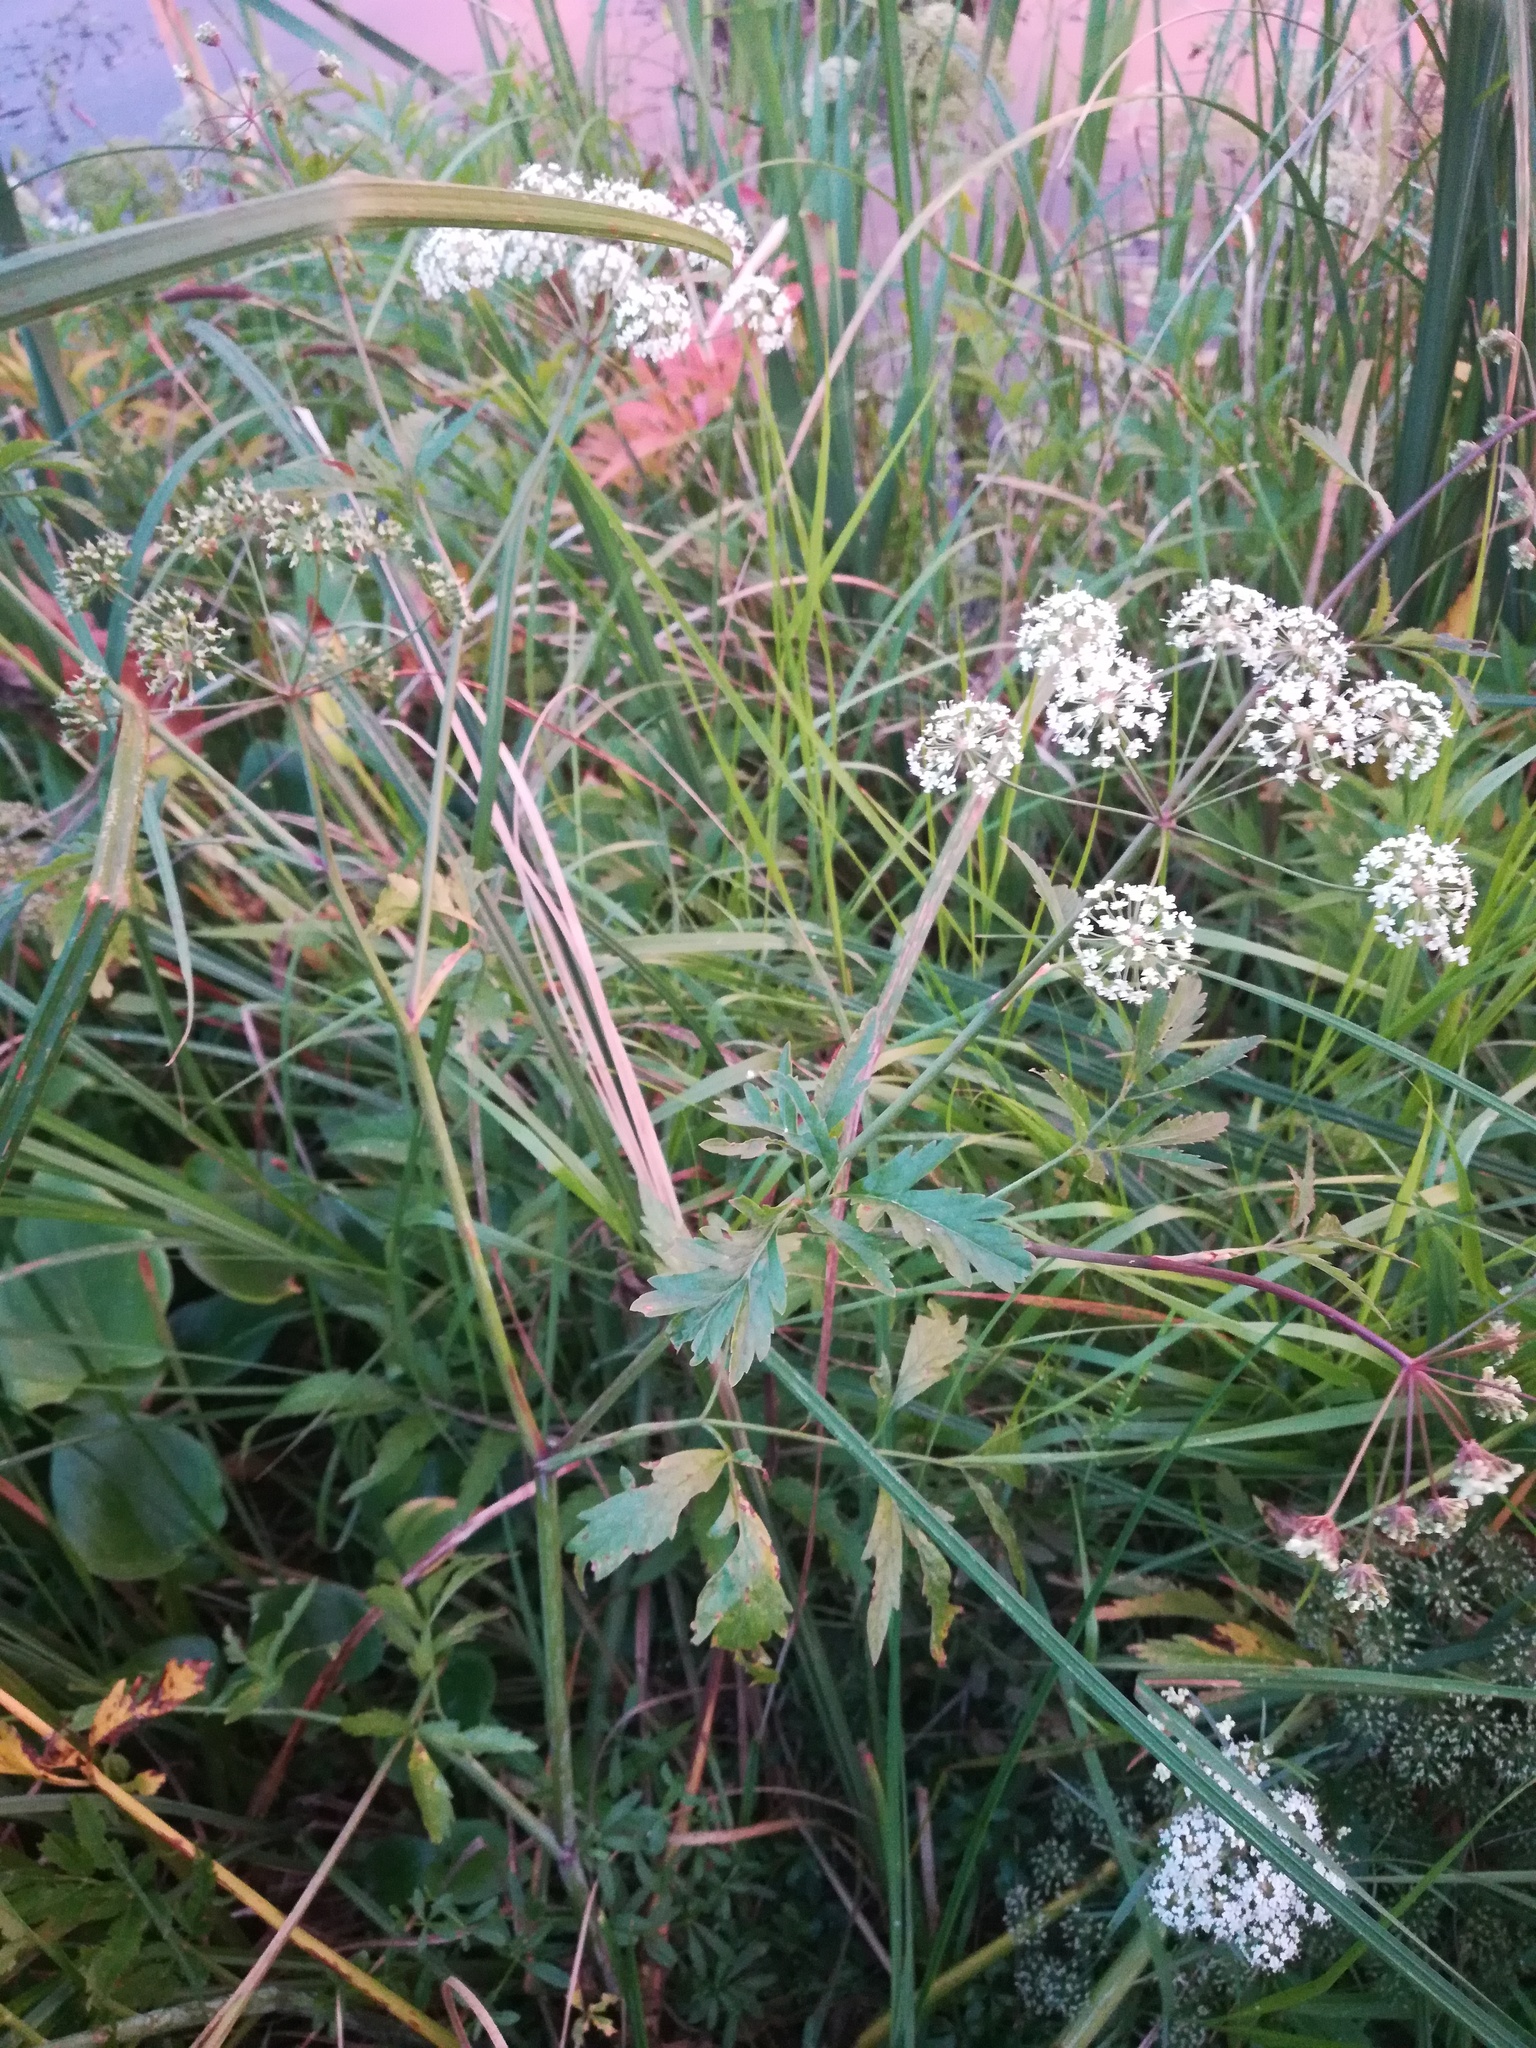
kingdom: Plantae
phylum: Tracheophyta
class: Magnoliopsida
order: Apiales
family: Apiaceae
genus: Cicuta
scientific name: Cicuta virosa
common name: Cowbane
